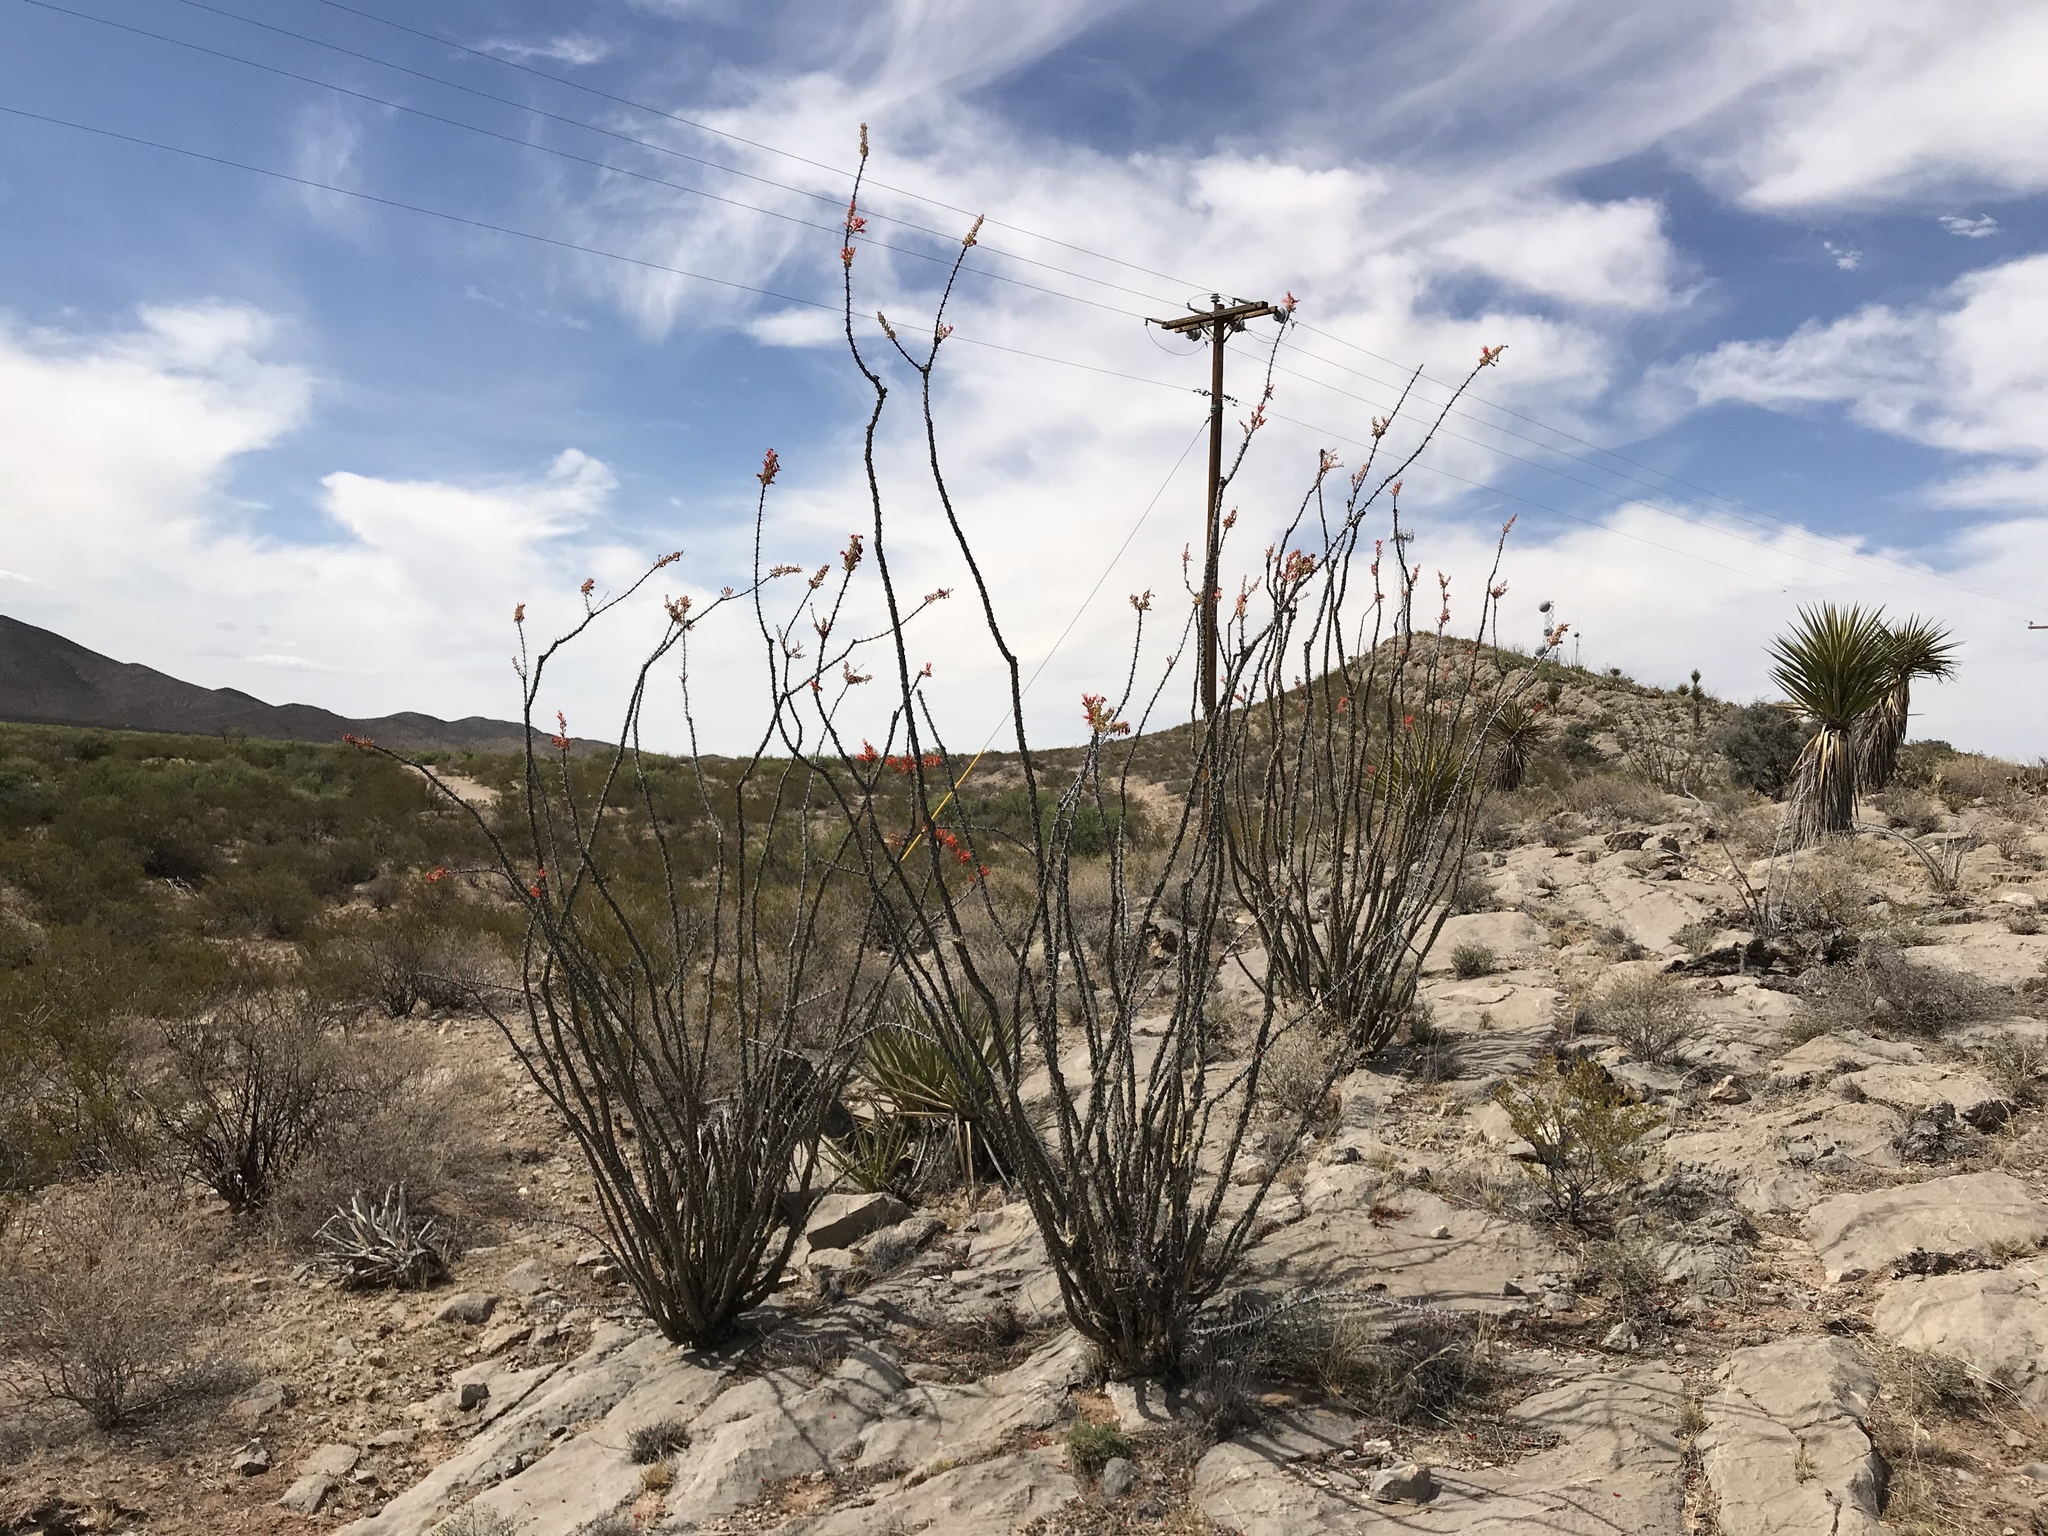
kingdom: Plantae
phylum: Tracheophyta
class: Magnoliopsida
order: Ericales
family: Fouquieriaceae
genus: Fouquieria
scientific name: Fouquieria splendens
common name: Vine-cactus
